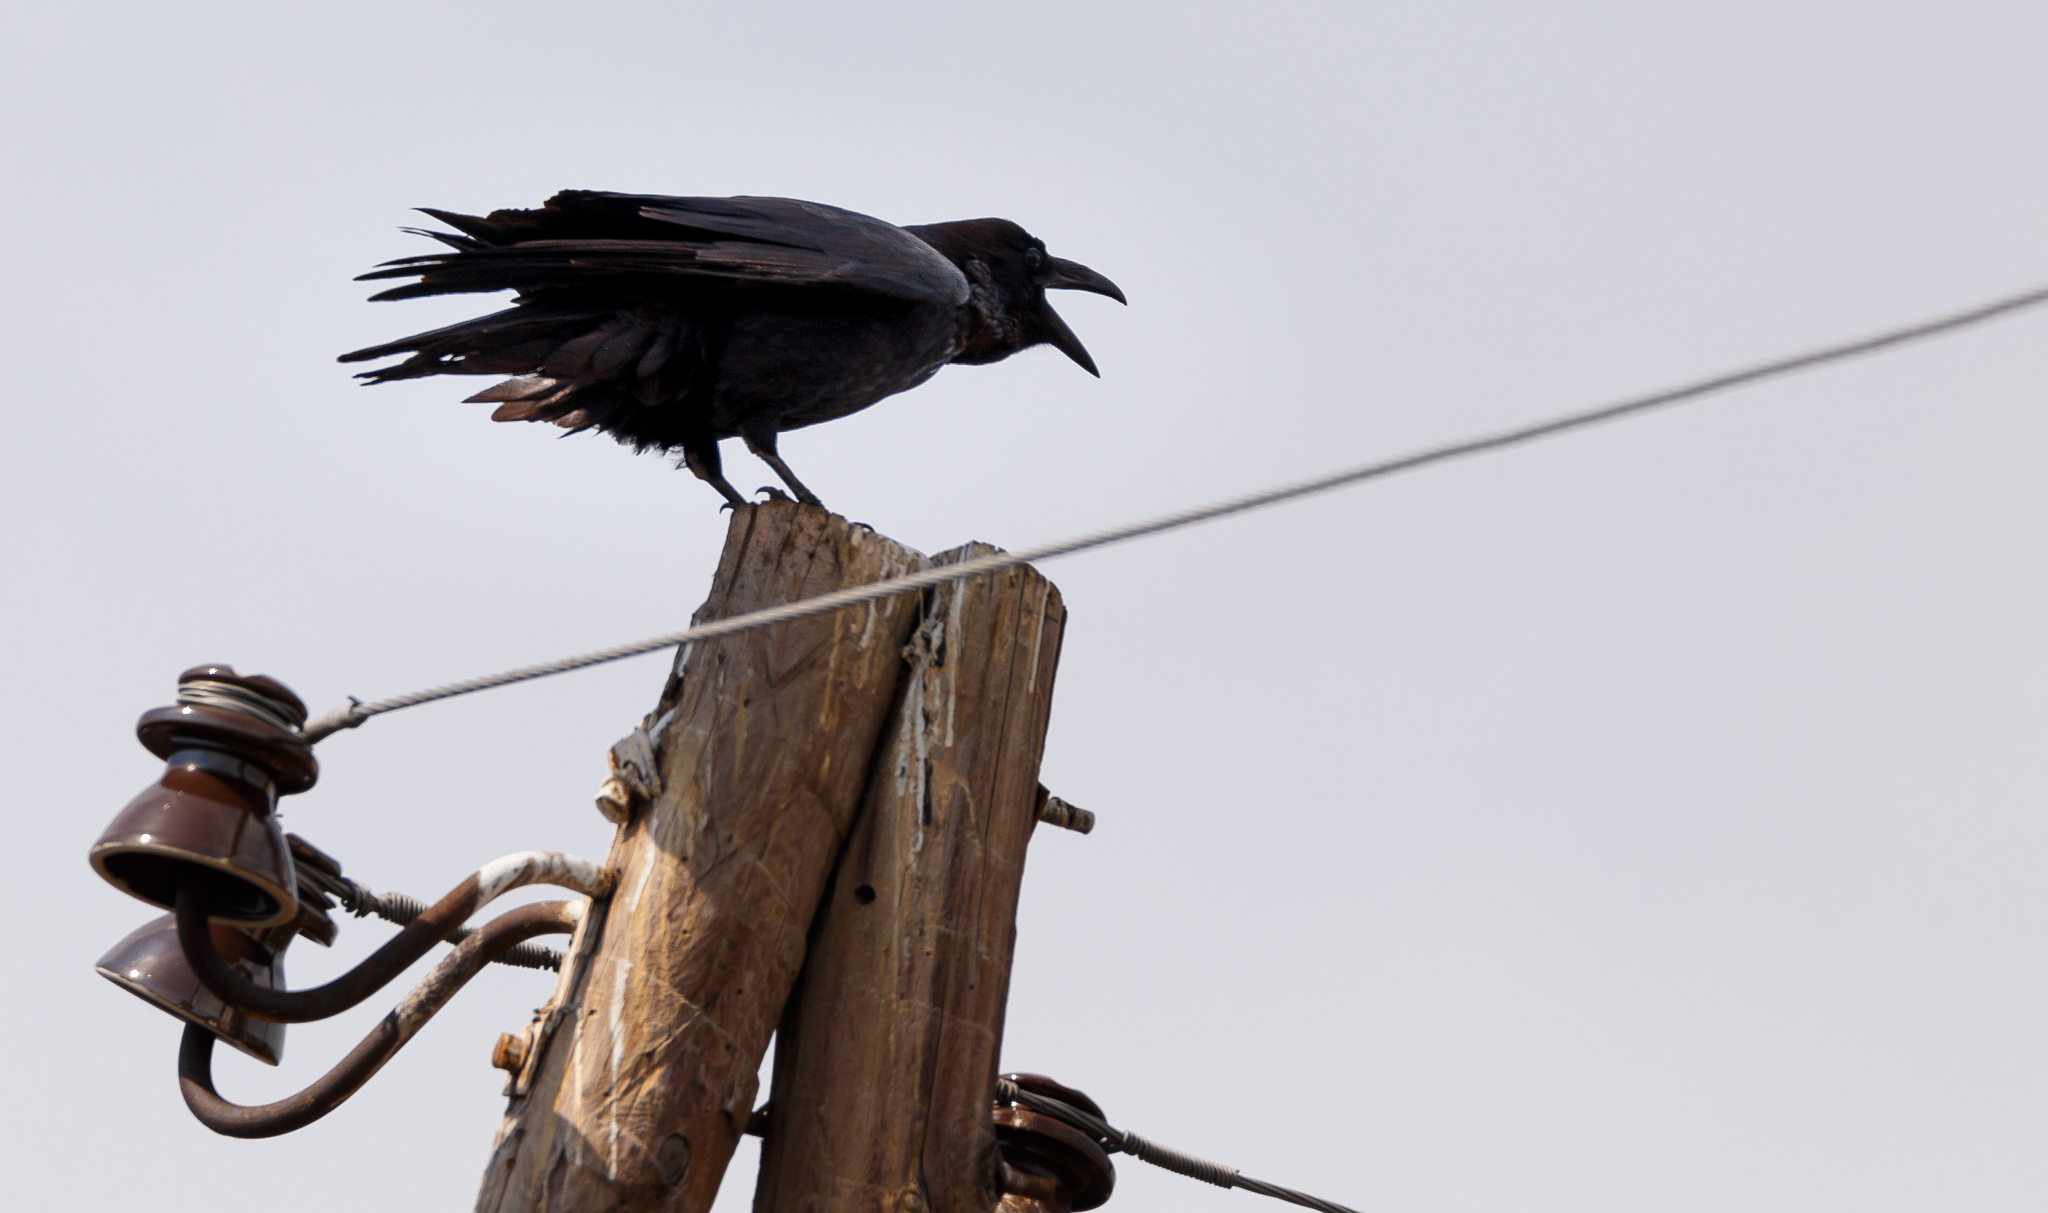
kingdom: Animalia
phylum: Chordata
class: Aves
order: Passeriformes
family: Corvidae
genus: Corvus
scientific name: Corvus corax
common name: Common raven
